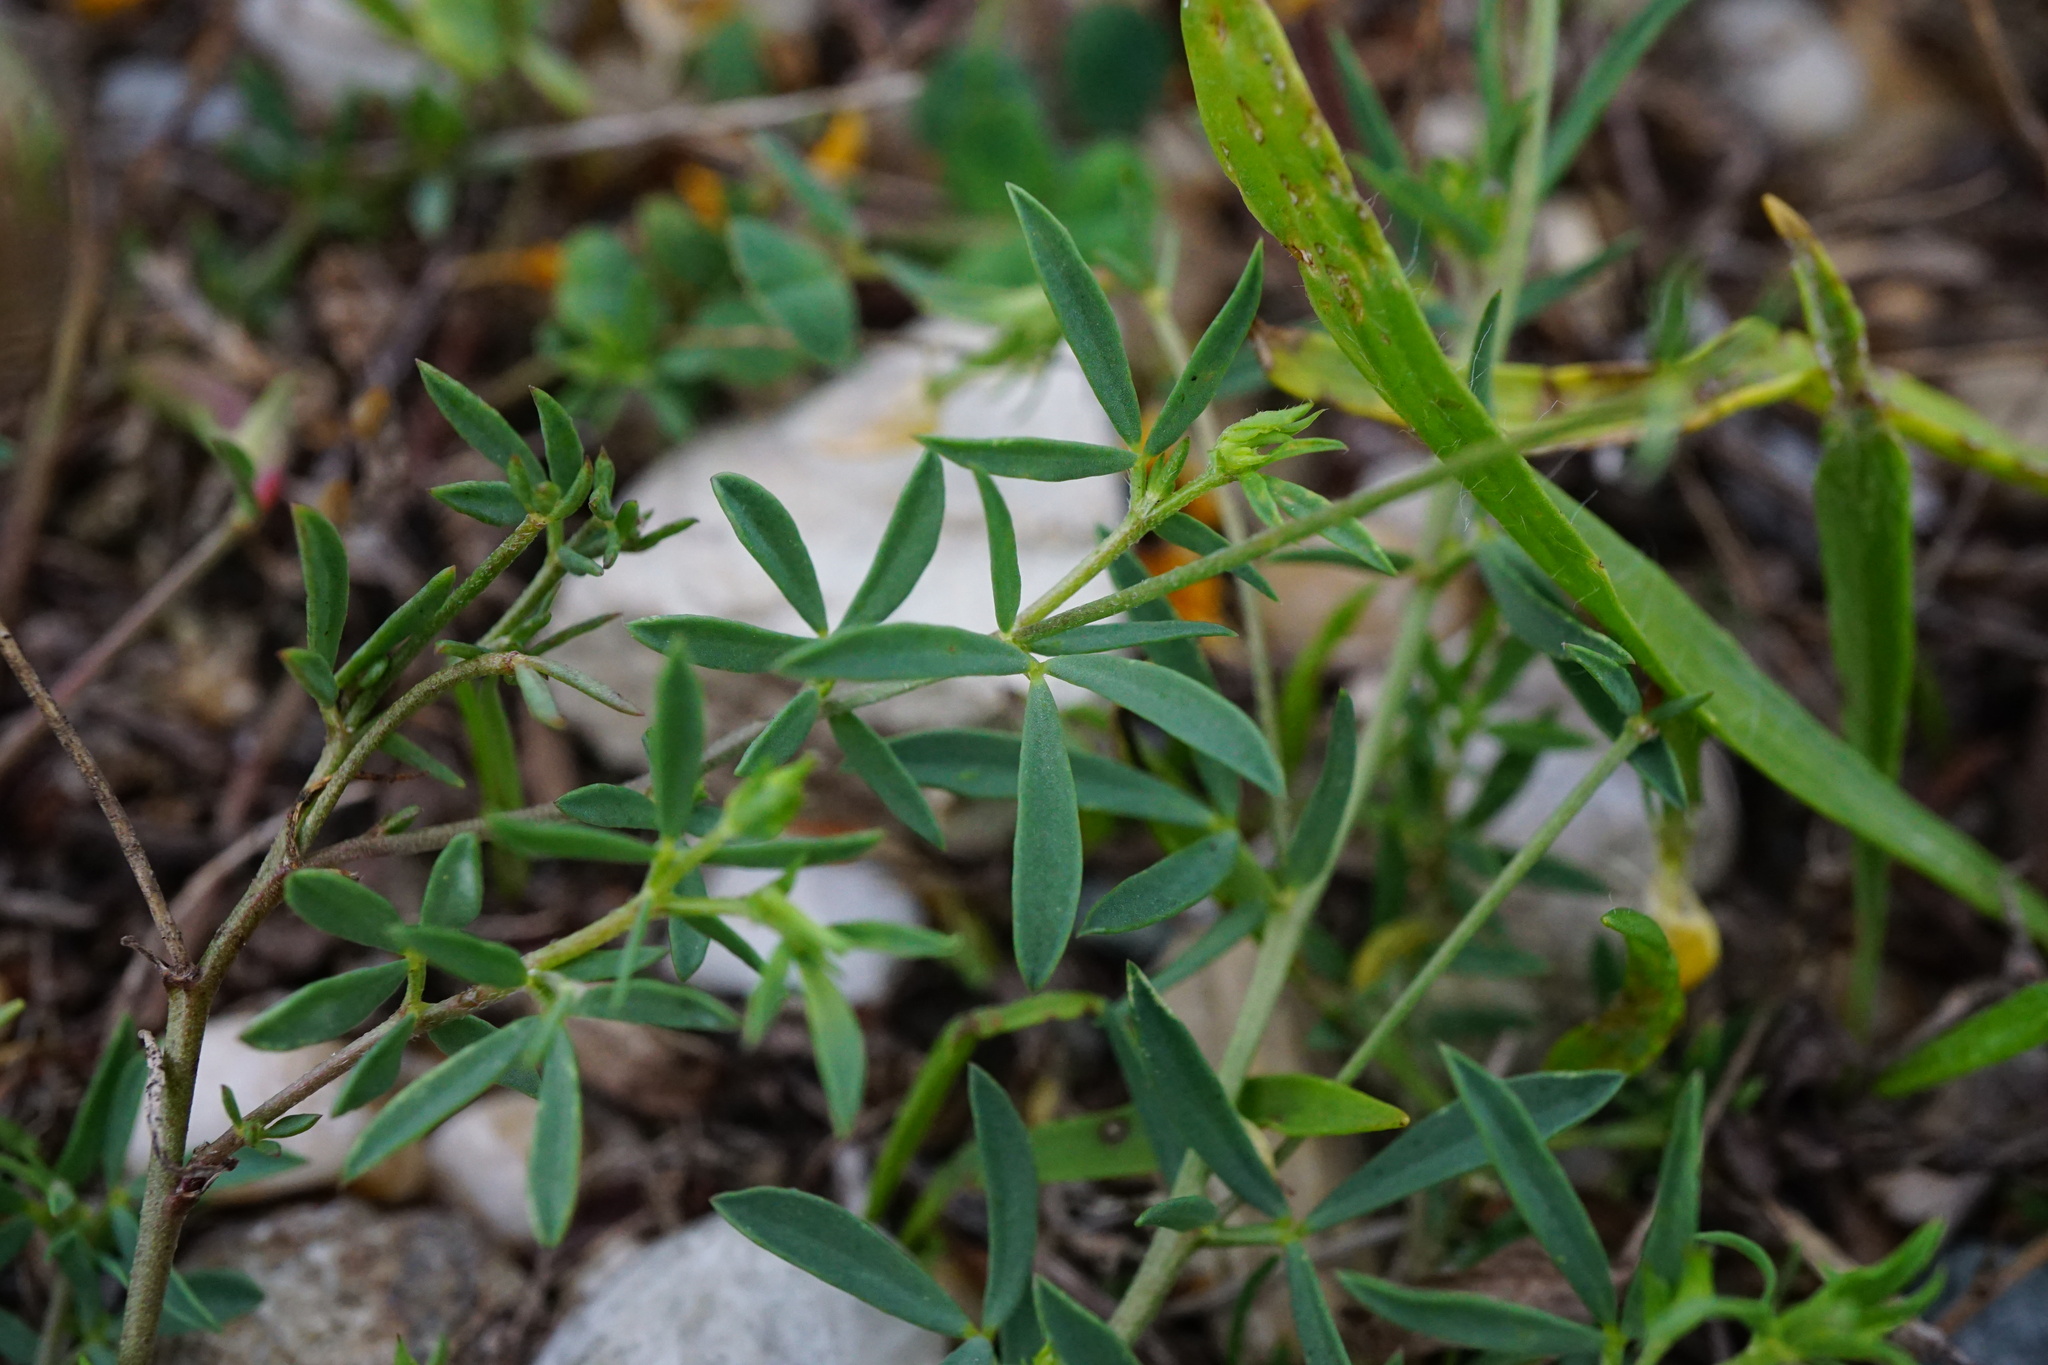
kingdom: Plantae
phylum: Tracheophyta
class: Magnoliopsida
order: Fabales
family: Fabaceae
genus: Lotus
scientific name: Lotus tenuis
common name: Narrow-leaved bird's-foot-trefoil
